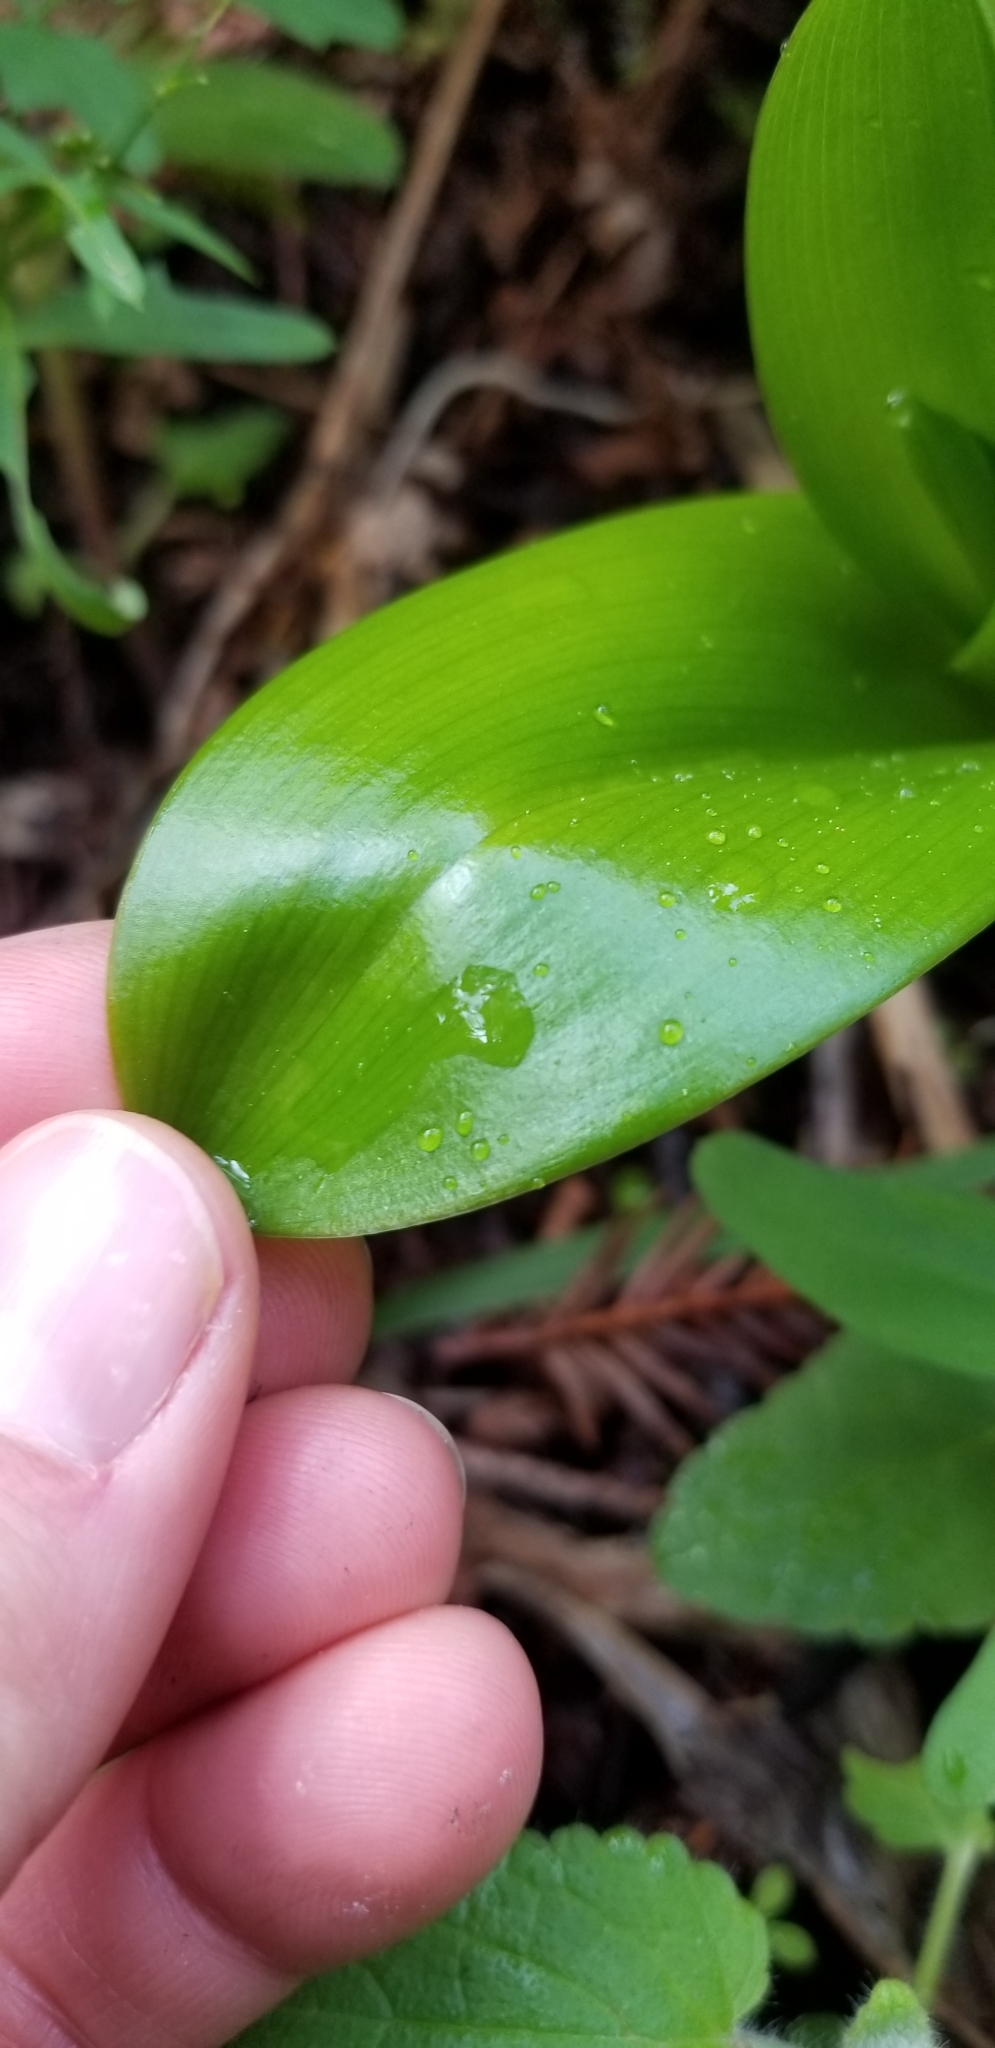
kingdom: Plantae
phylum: Tracheophyta
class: Liliopsida
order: Liliales
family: Liliaceae
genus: Clintonia
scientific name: Clintonia andrewsiana
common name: Red clintonia
